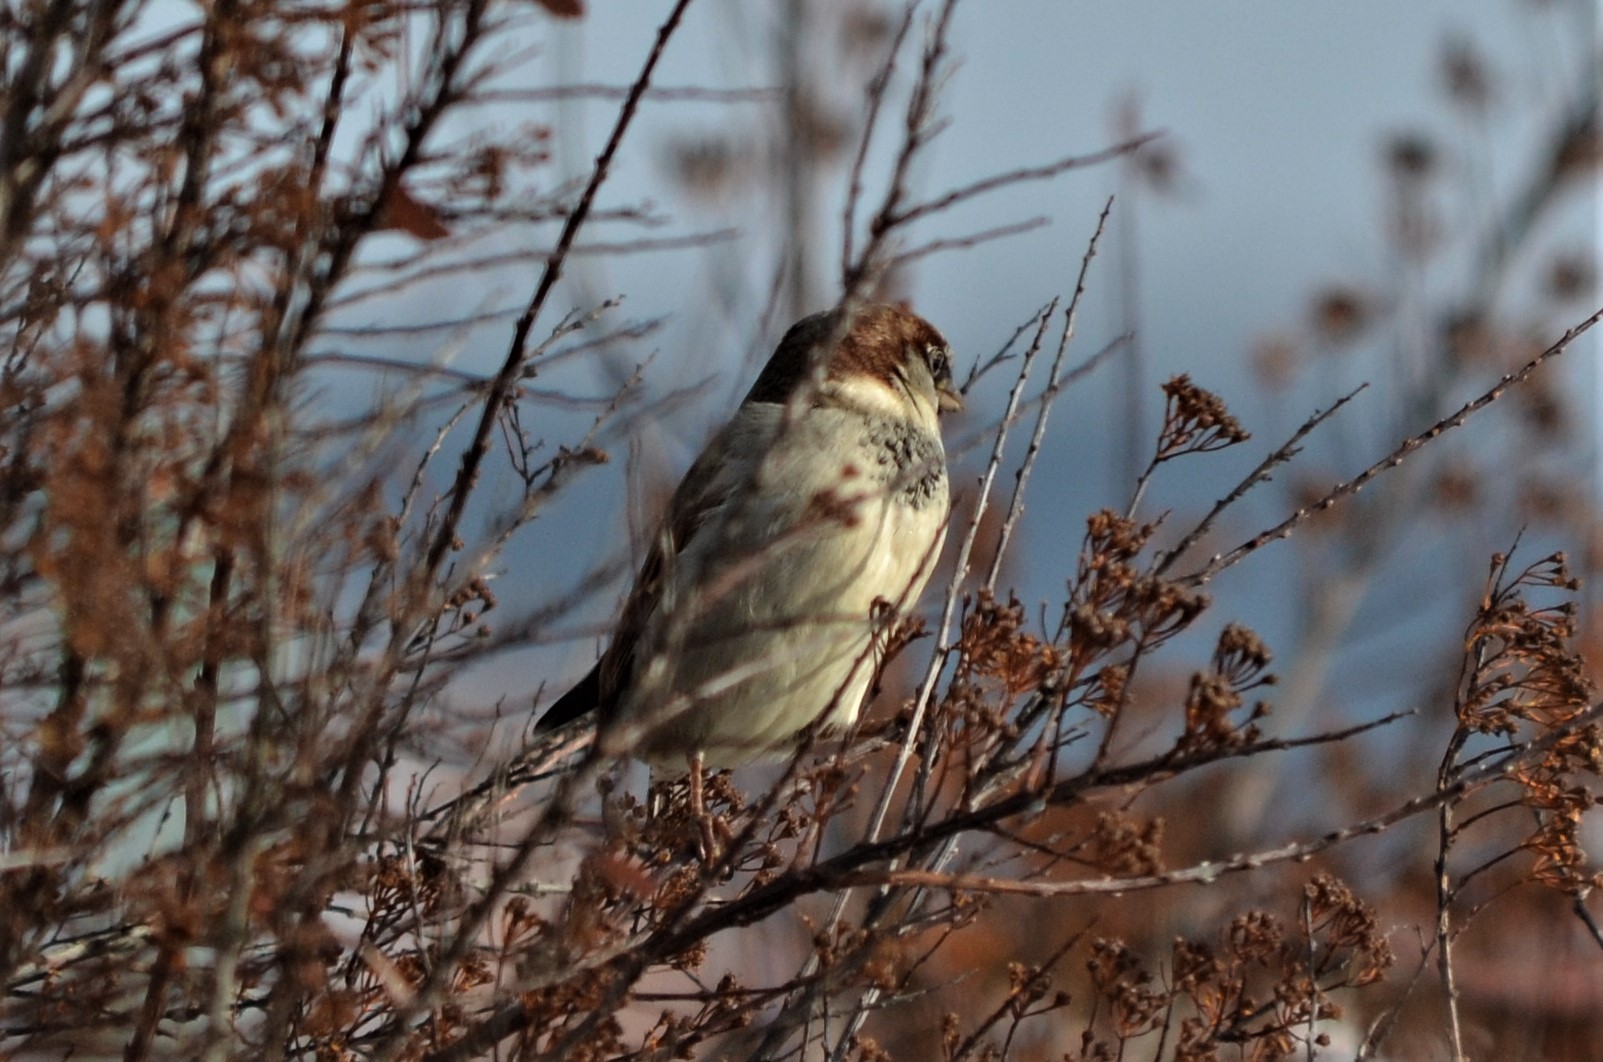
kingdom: Animalia
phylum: Chordata
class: Aves
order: Passeriformes
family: Passeridae
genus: Passer
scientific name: Passer domesticus
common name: House sparrow
